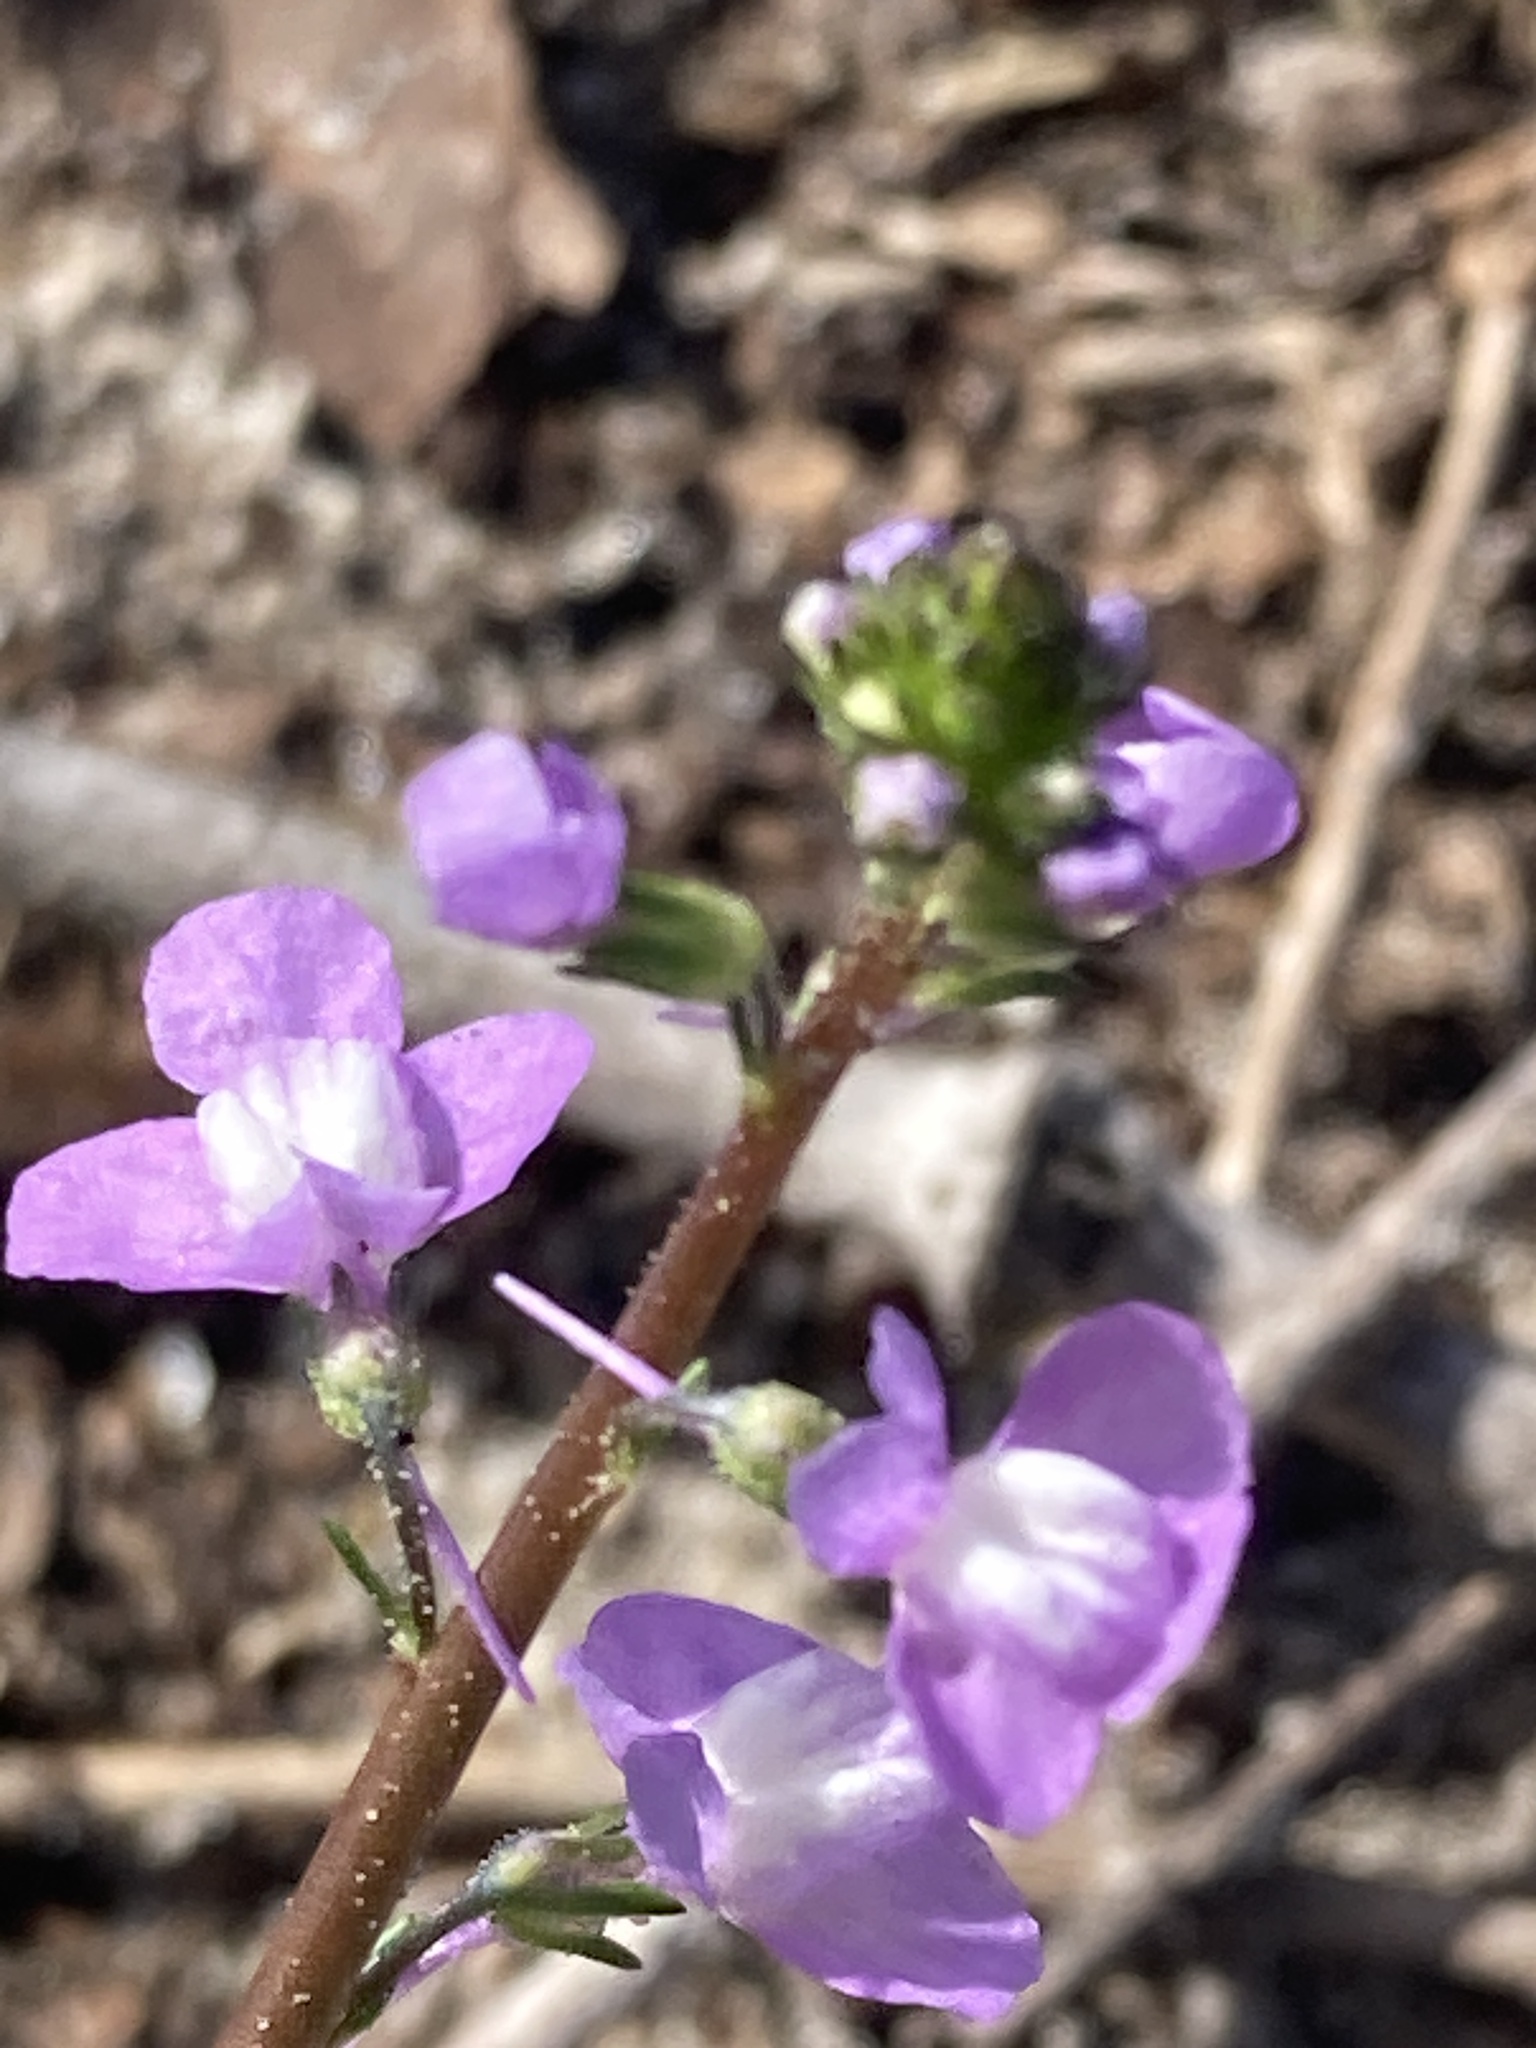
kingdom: Plantae
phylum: Tracheophyta
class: Magnoliopsida
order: Lamiales
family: Plantaginaceae
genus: Nuttallanthus
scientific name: Nuttallanthus canadensis
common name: Blue toadflax
